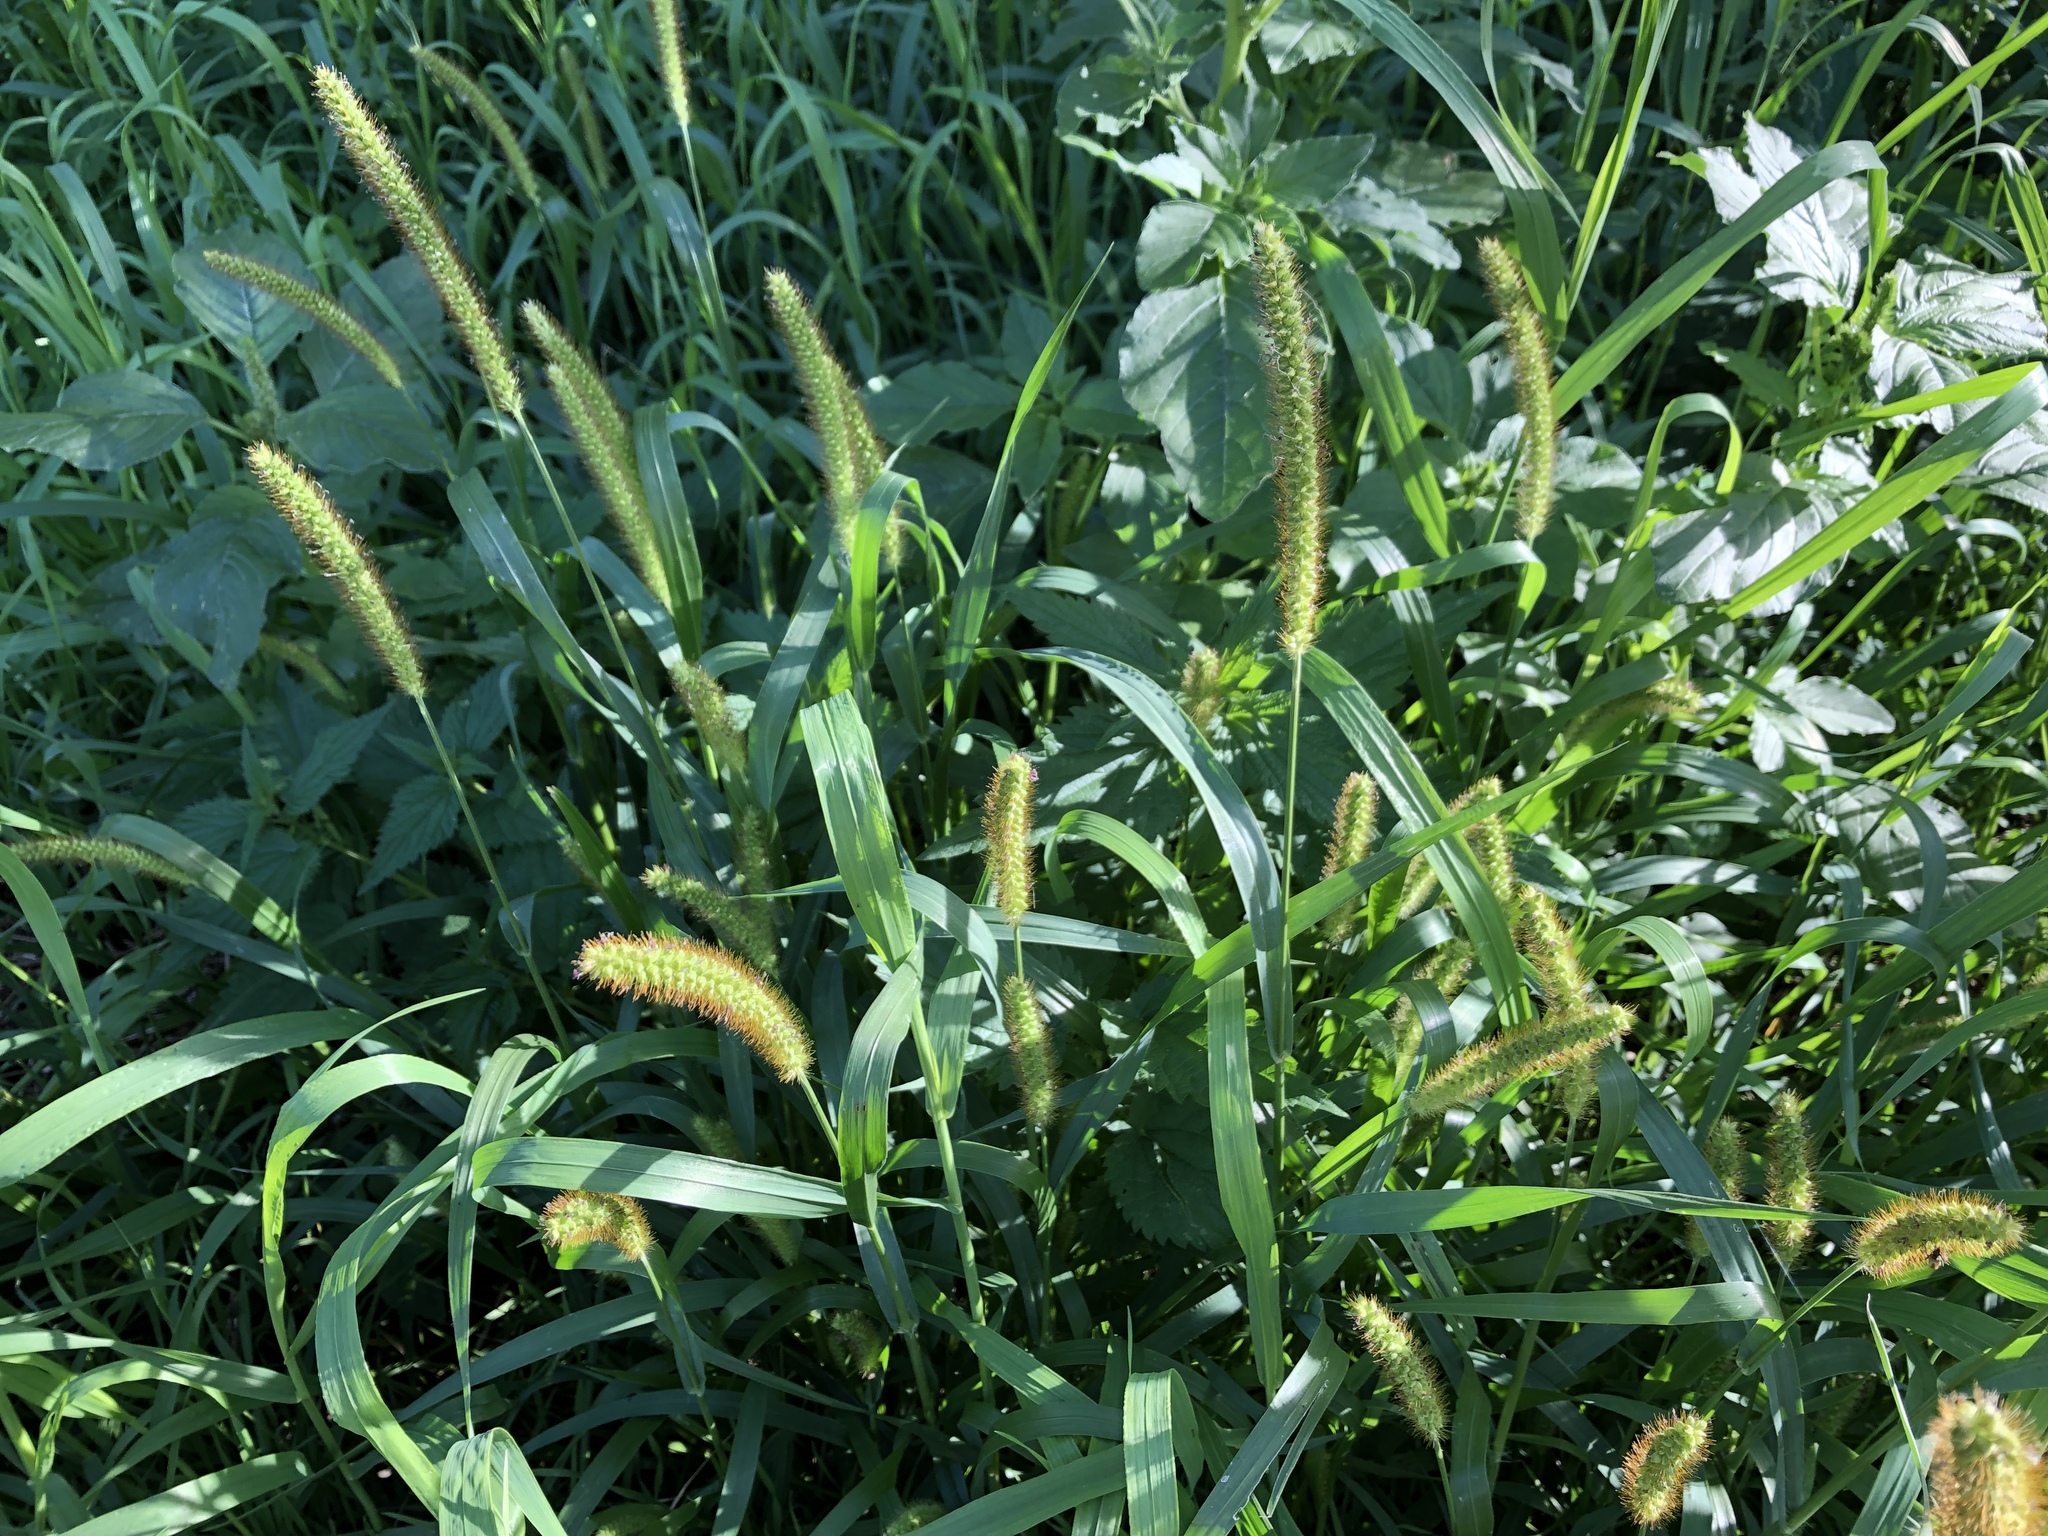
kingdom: Plantae
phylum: Tracheophyta
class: Liliopsida
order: Poales
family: Poaceae
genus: Setaria
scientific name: Setaria pumila
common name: Yellow bristle-grass
